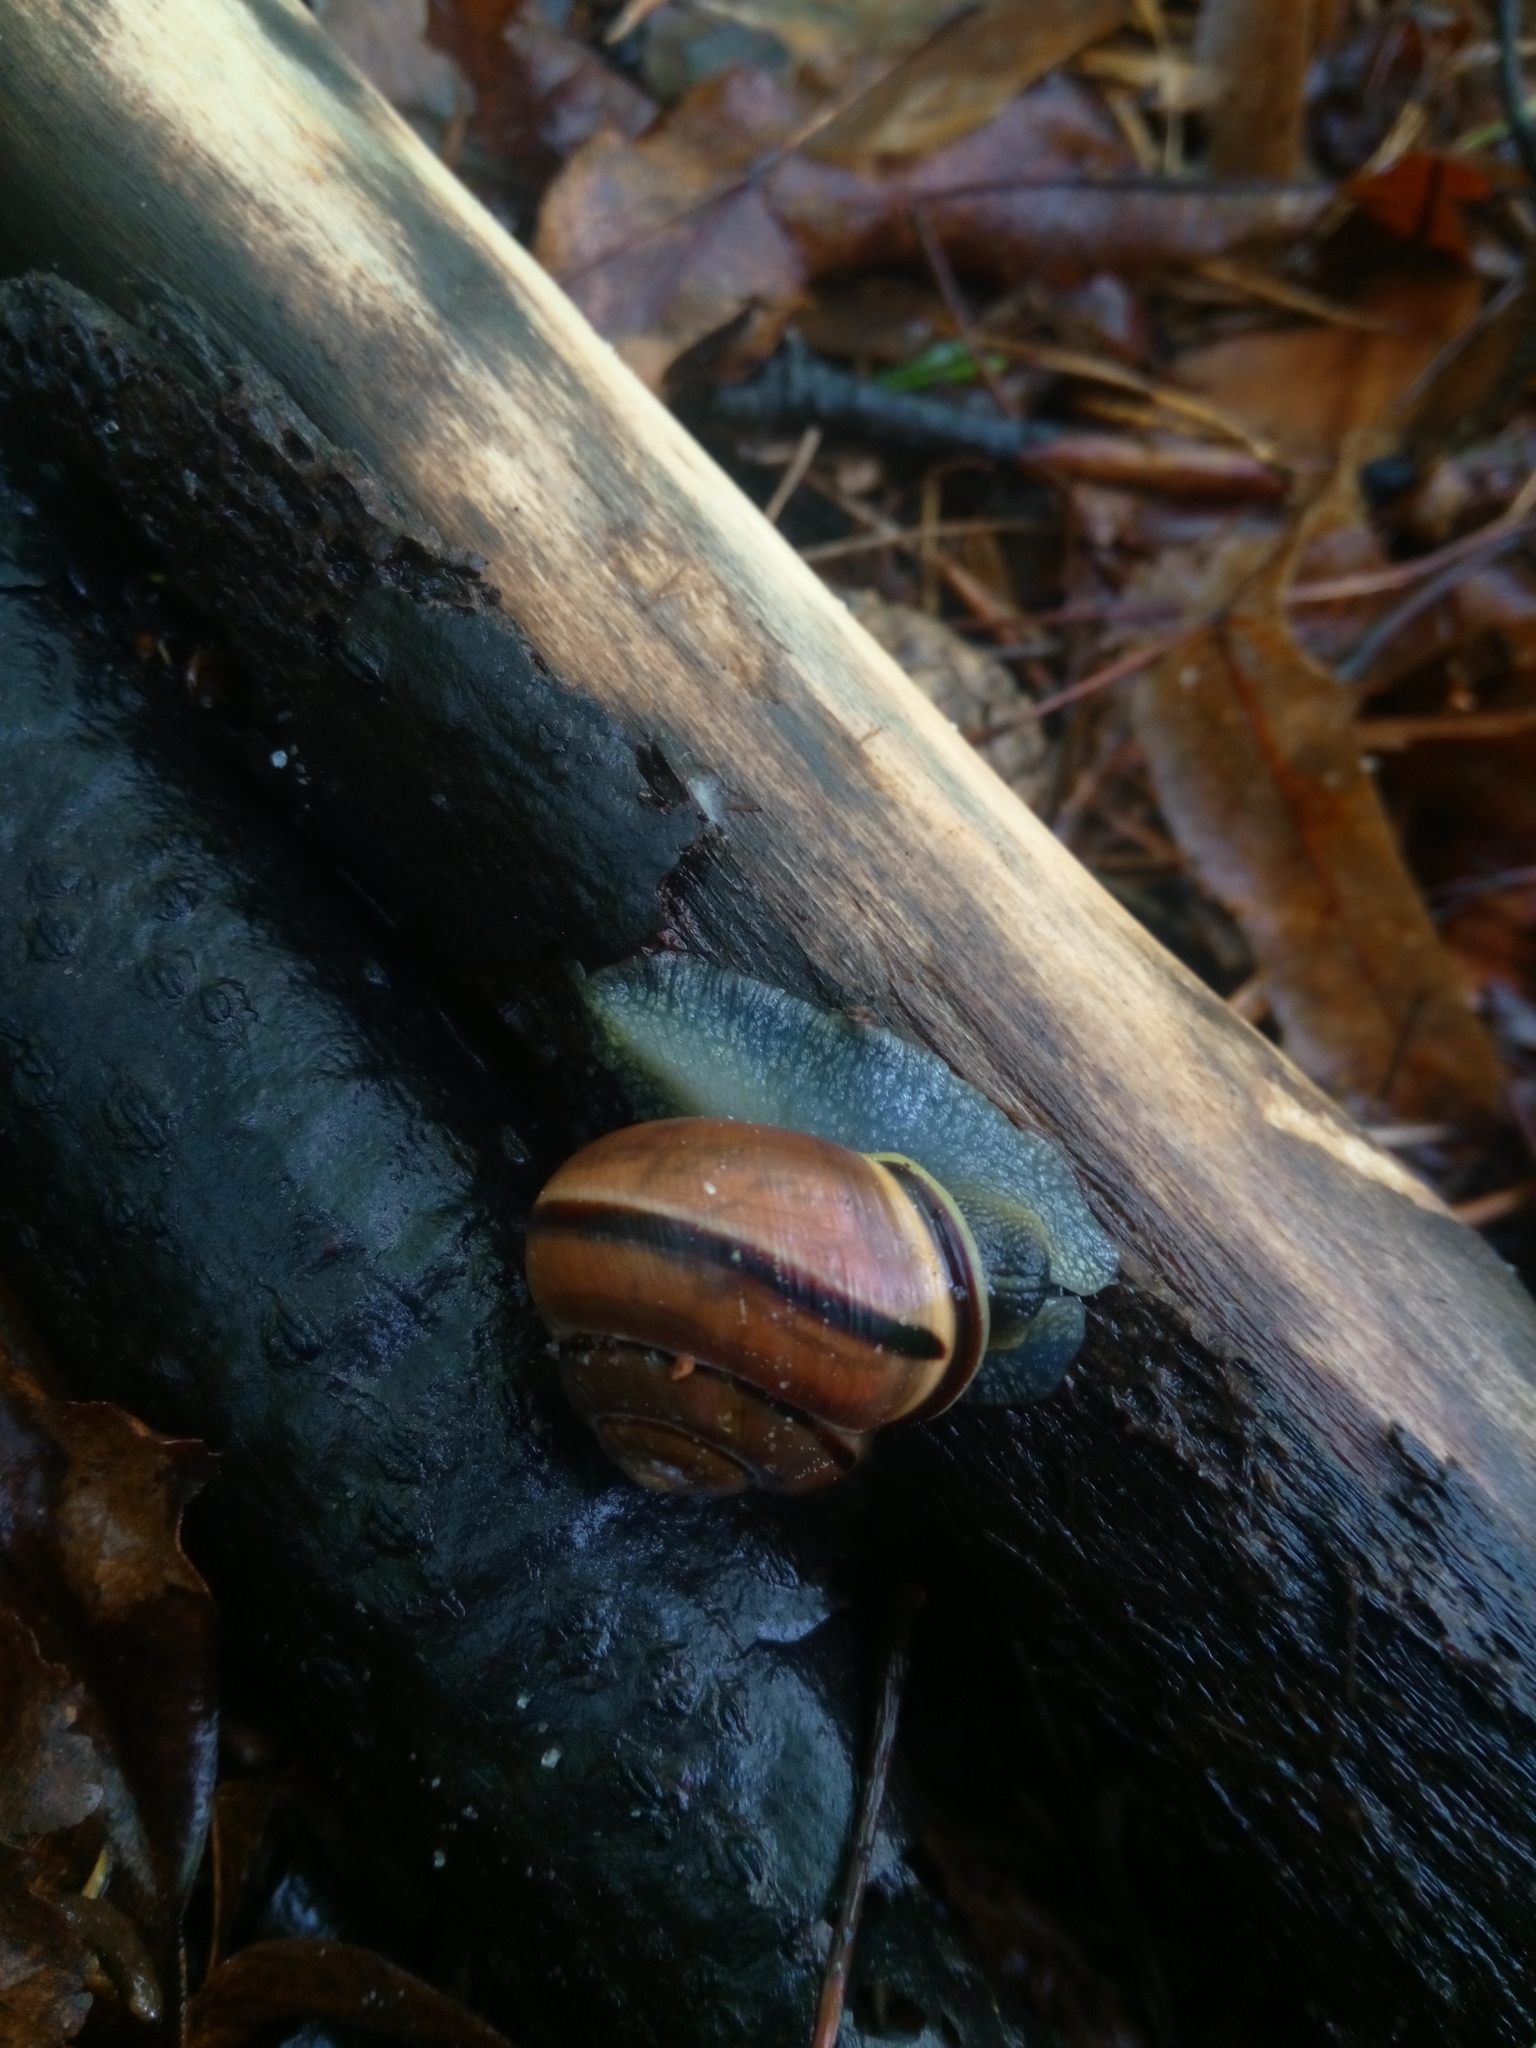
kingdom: Animalia
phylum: Mollusca
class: Gastropoda
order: Stylommatophora
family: Helicidae
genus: Cepaea
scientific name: Cepaea nemoralis
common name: Grovesnail
